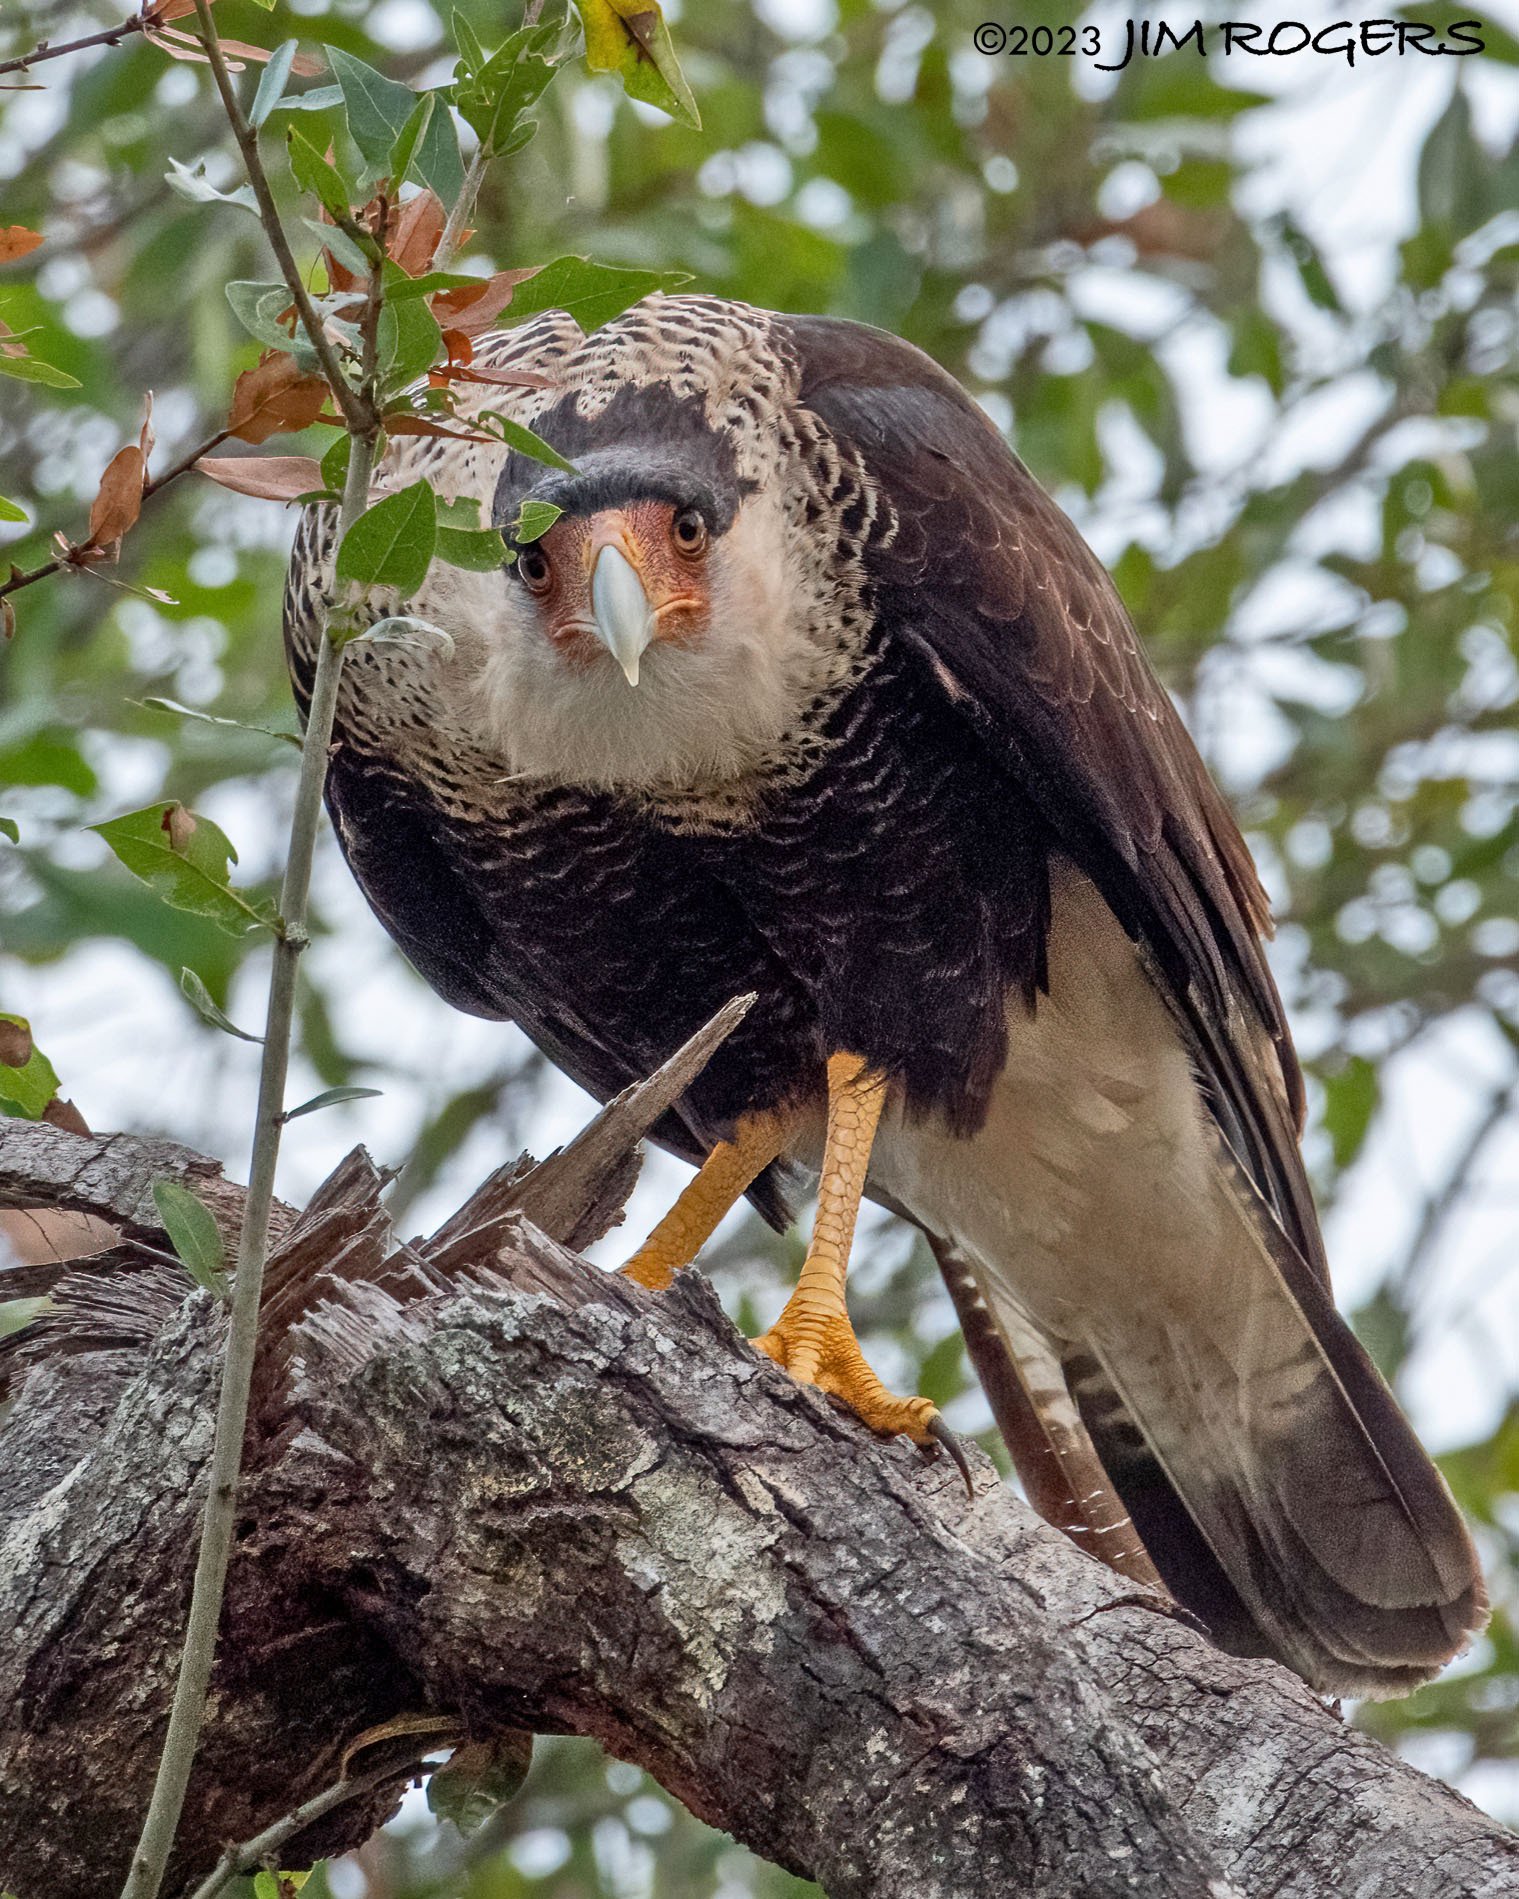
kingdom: Animalia
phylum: Chordata
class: Aves
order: Falconiformes
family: Falconidae
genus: Caracara
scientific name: Caracara plancus
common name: Southern caracara
